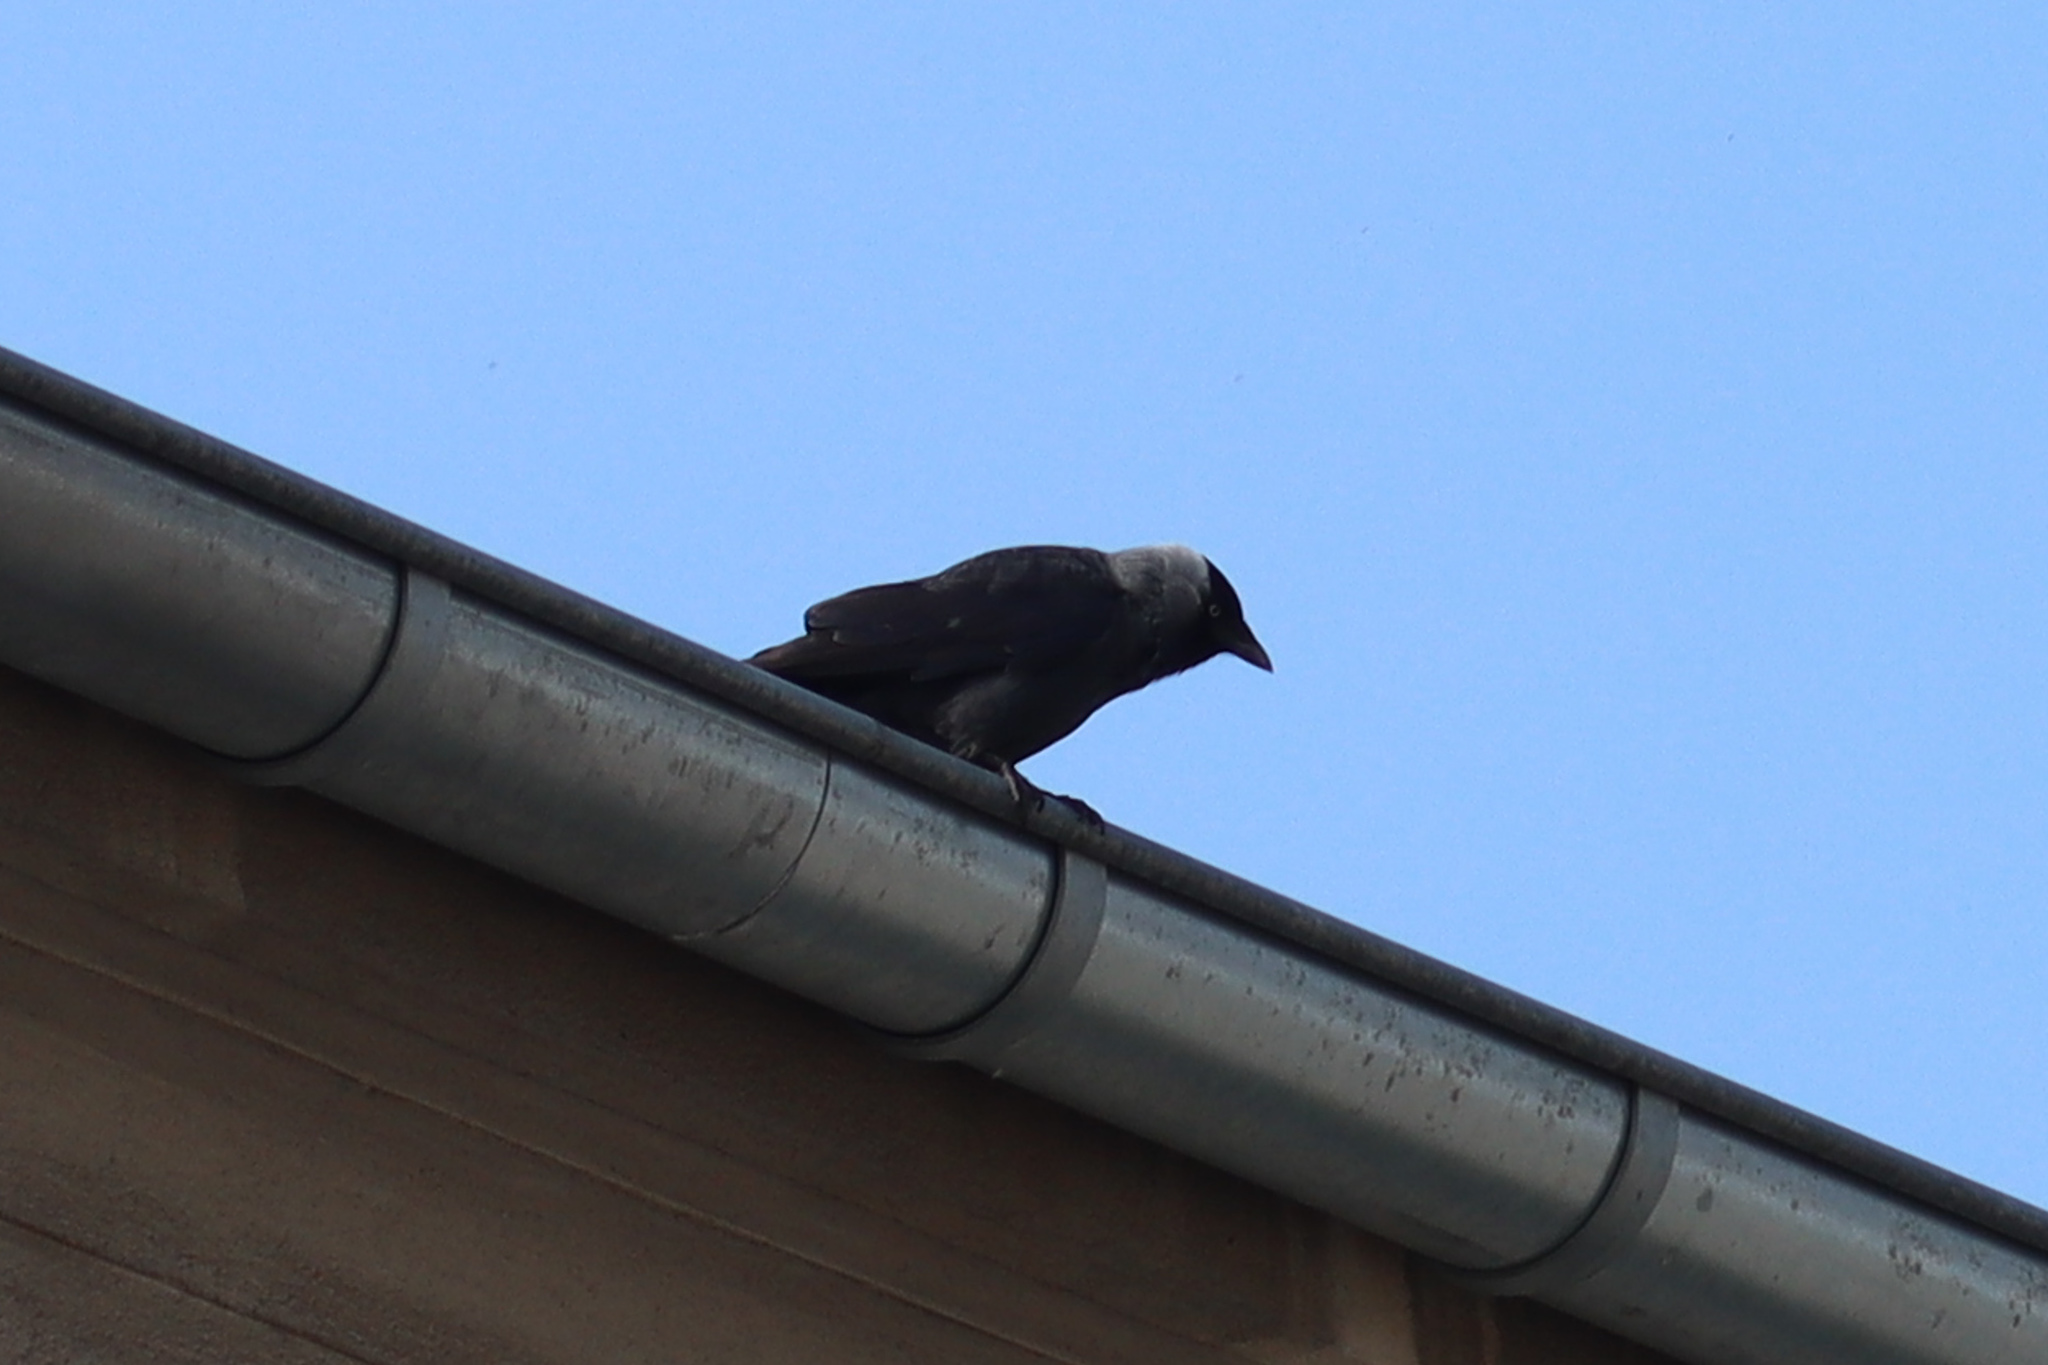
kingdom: Animalia
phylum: Chordata
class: Aves
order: Passeriformes
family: Corvidae
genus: Coloeus
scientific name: Coloeus monedula
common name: Western jackdaw
